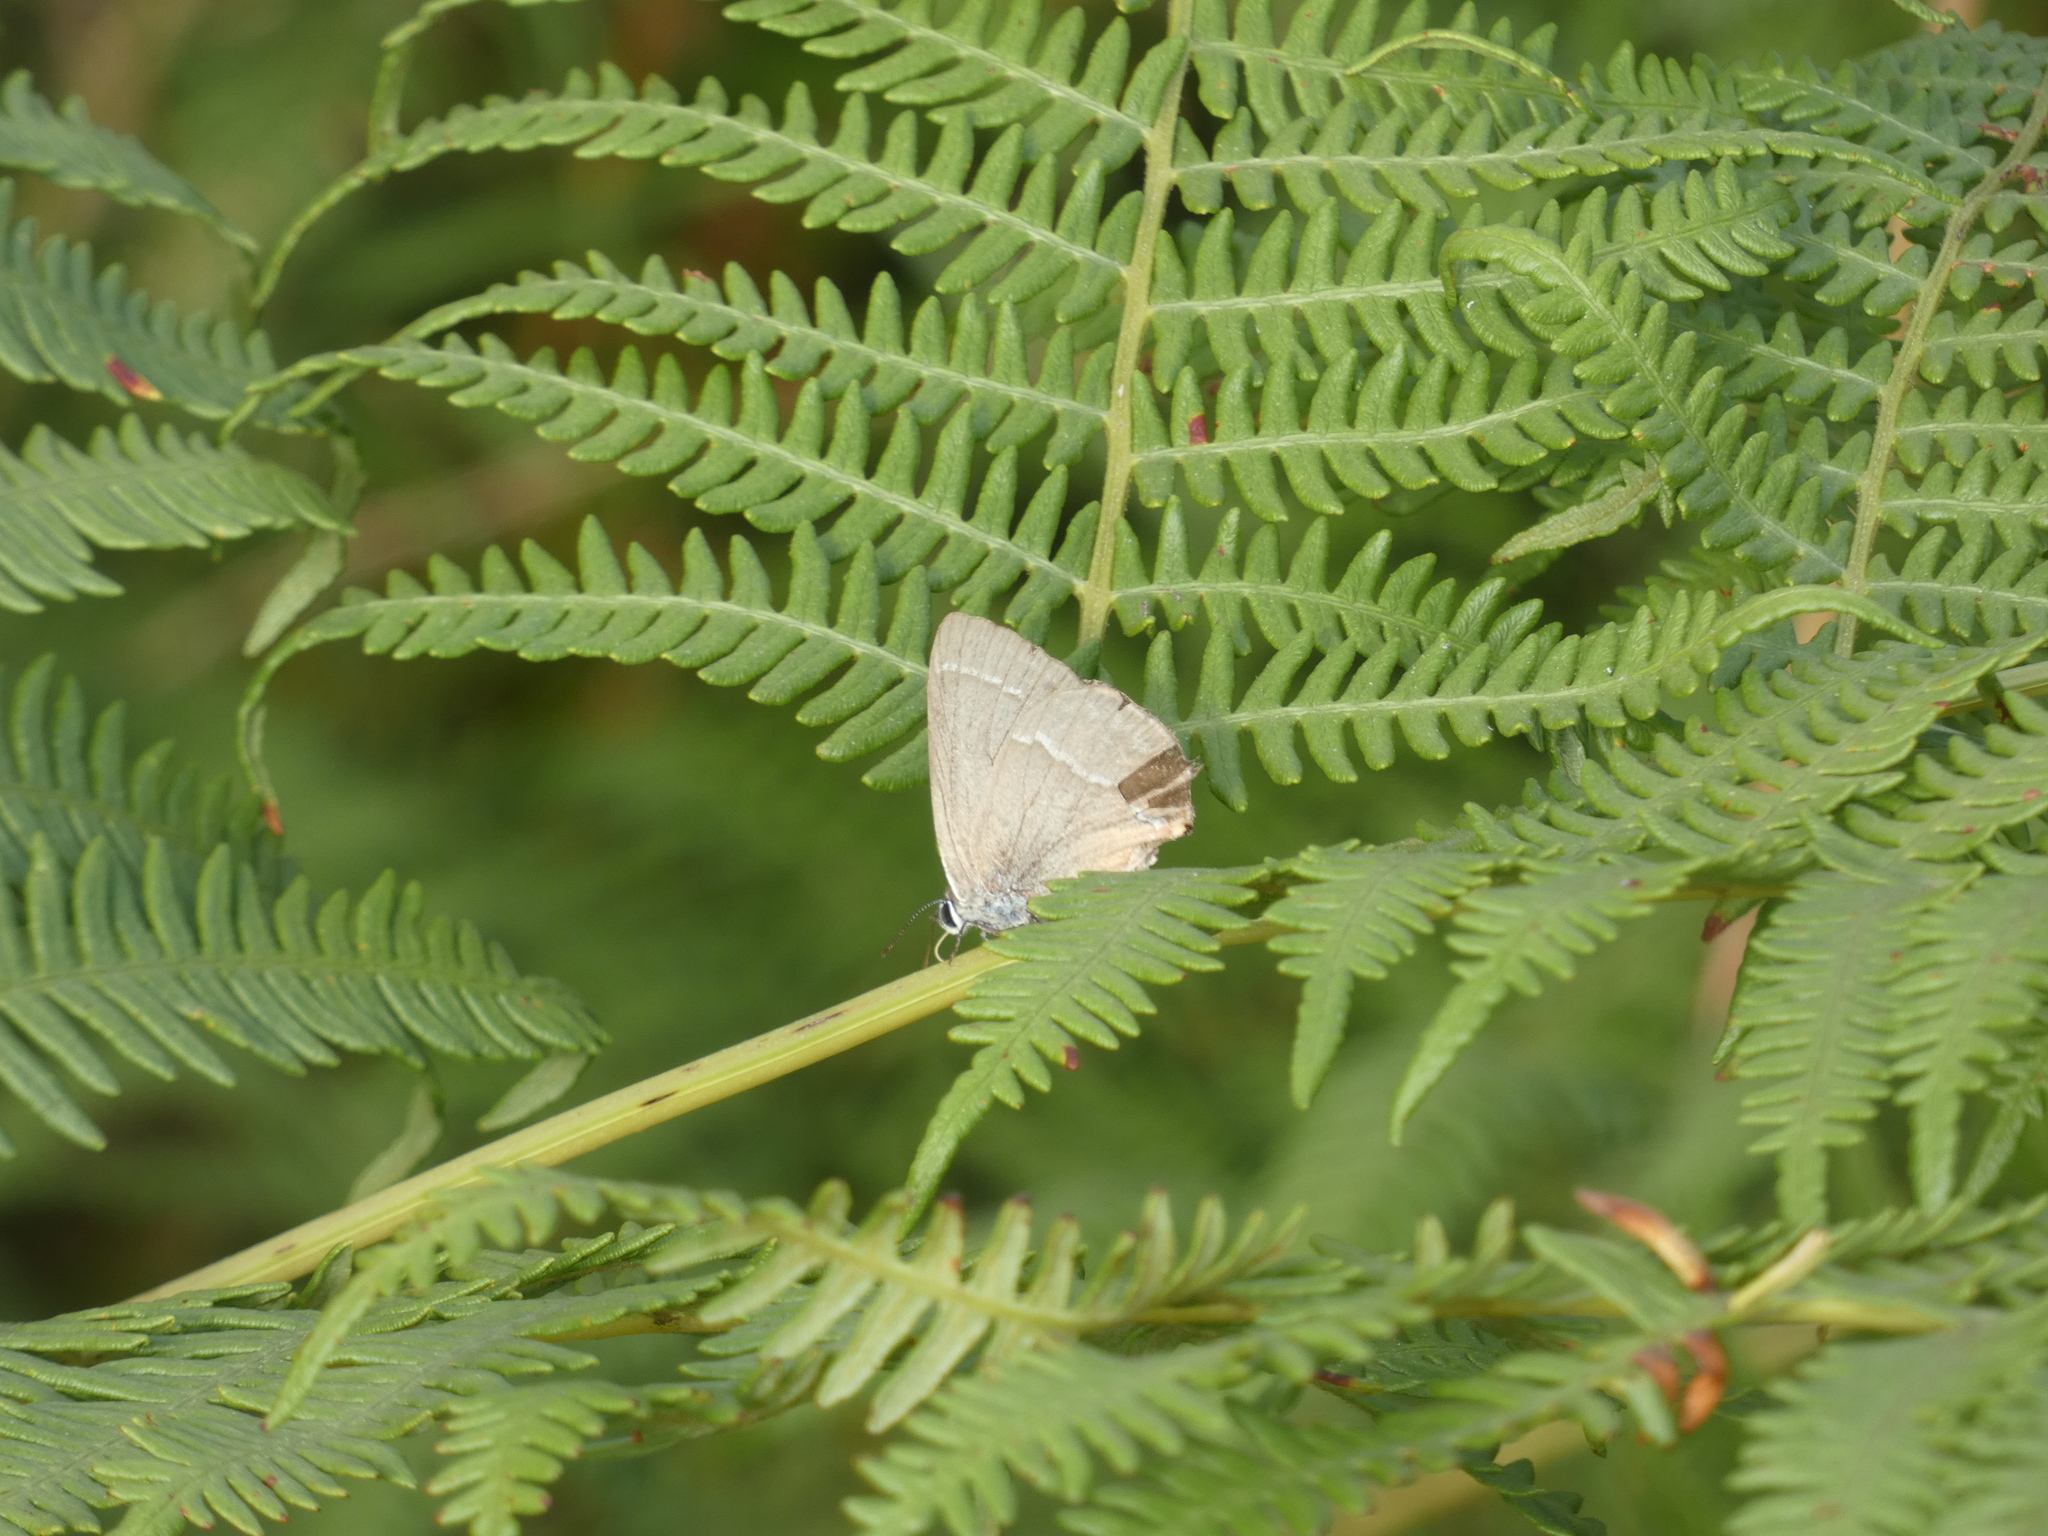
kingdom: Animalia
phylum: Arthropoda
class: Insecta
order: Lepidoptera
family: Lycaenidae
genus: Quercusia
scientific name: Quercusia quercus
